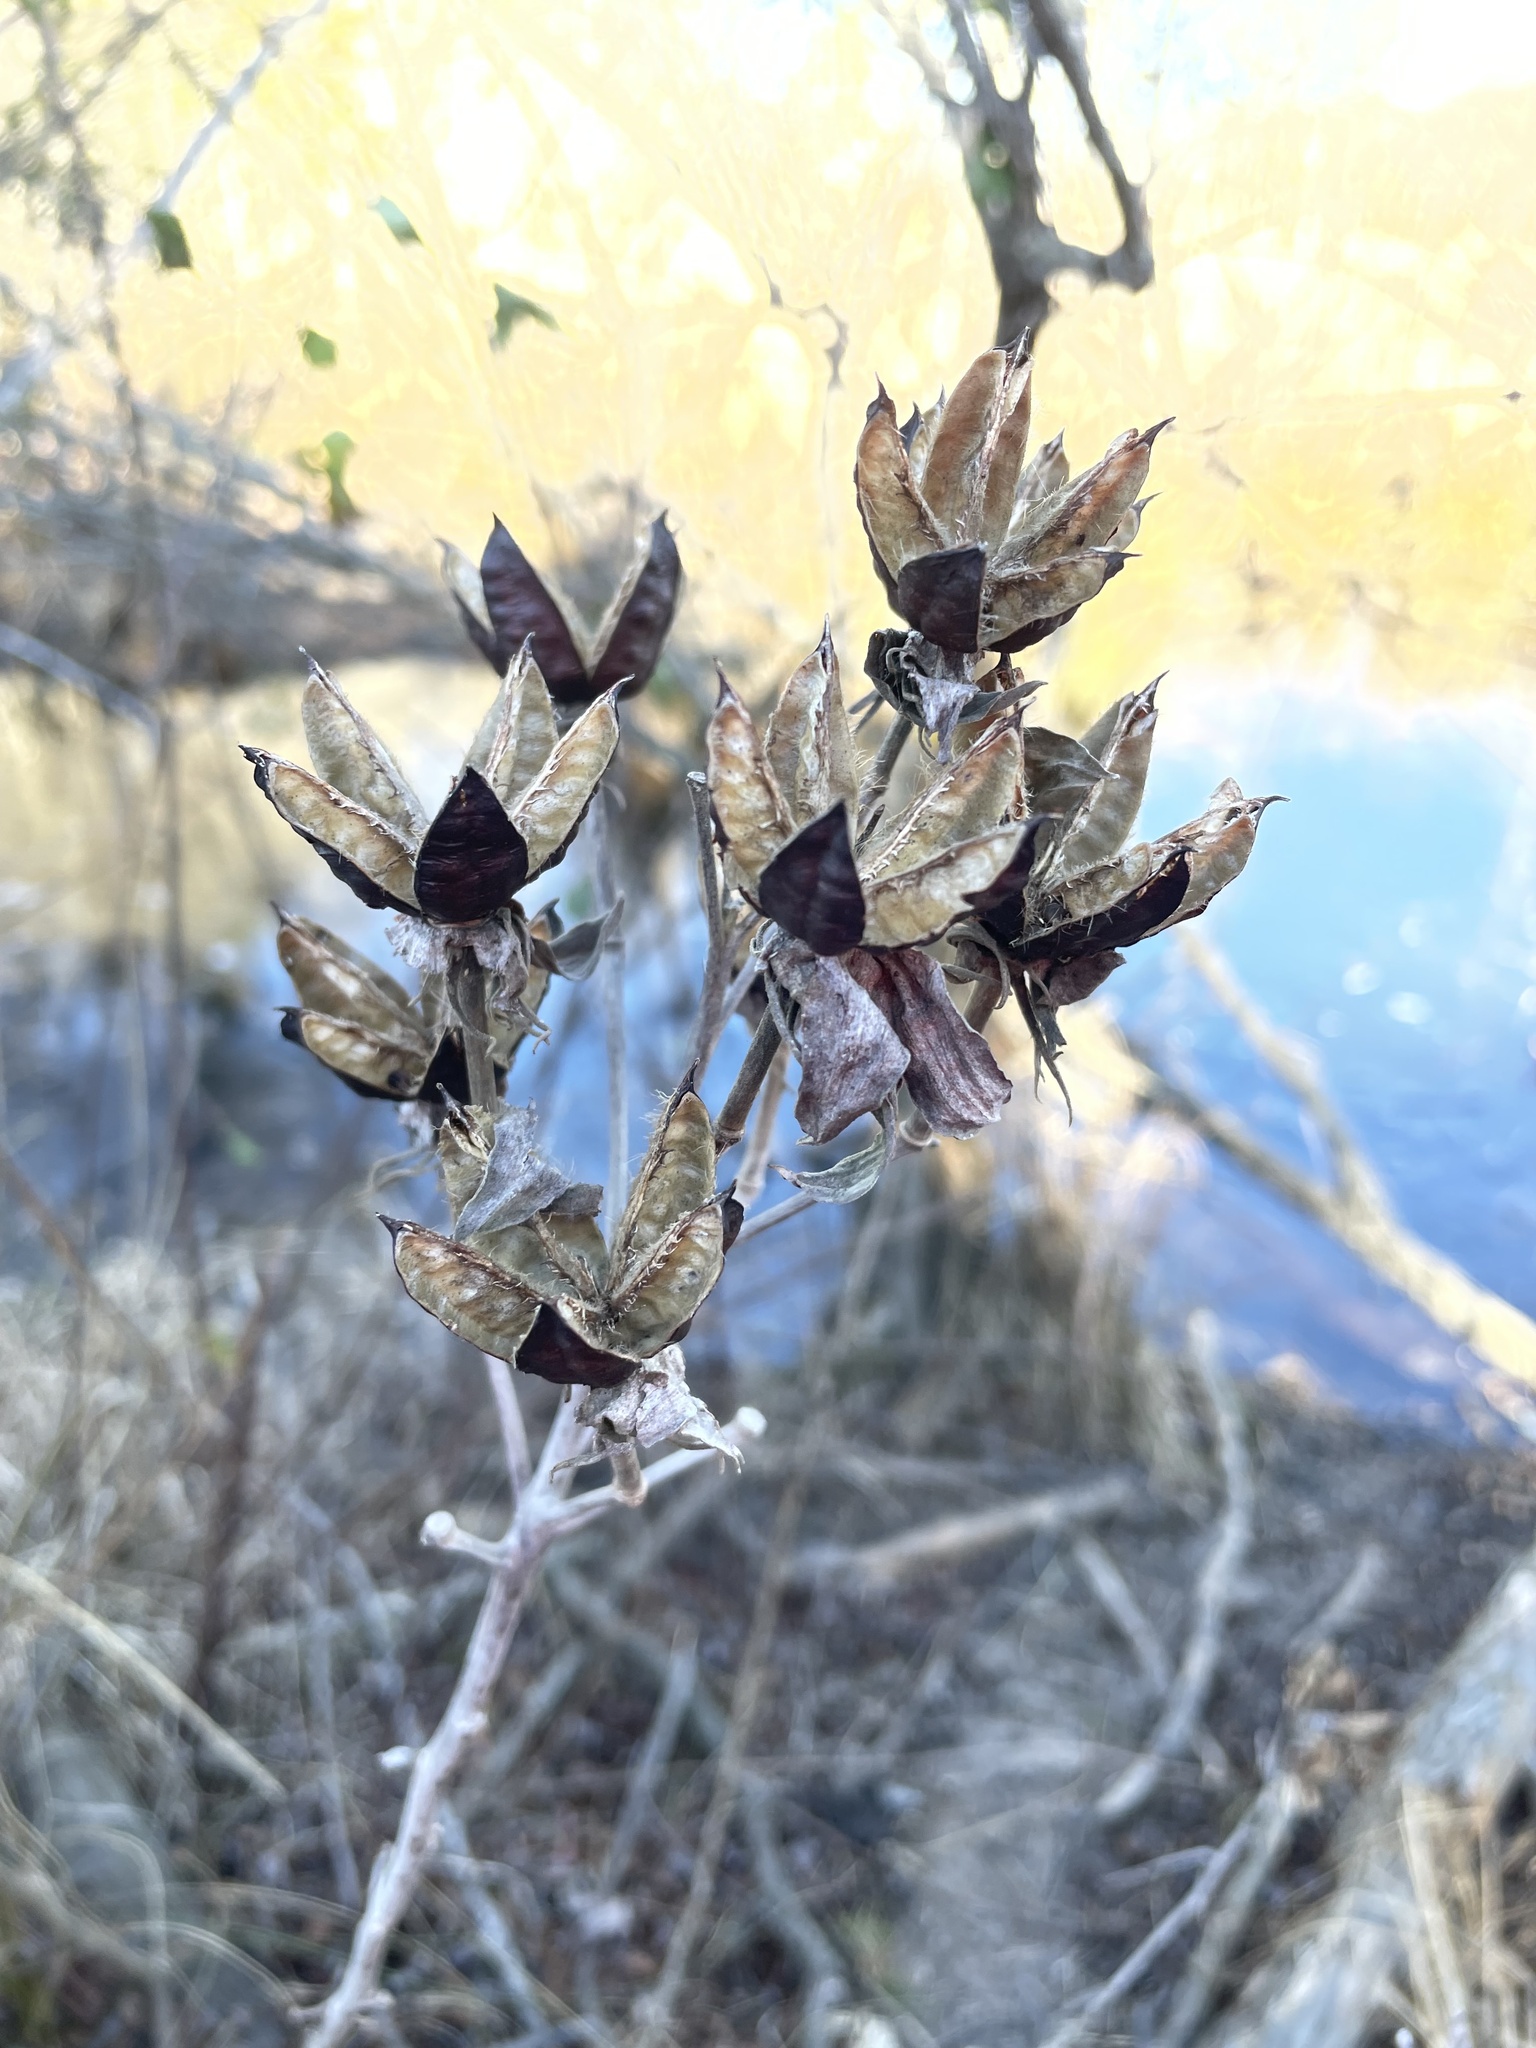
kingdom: Plantae
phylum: Tracheophyta
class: Magnoliopsida
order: Malvales
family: Malvaceae
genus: Hibiscus
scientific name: Hibiscus moscheutos
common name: Common rose-mallow
